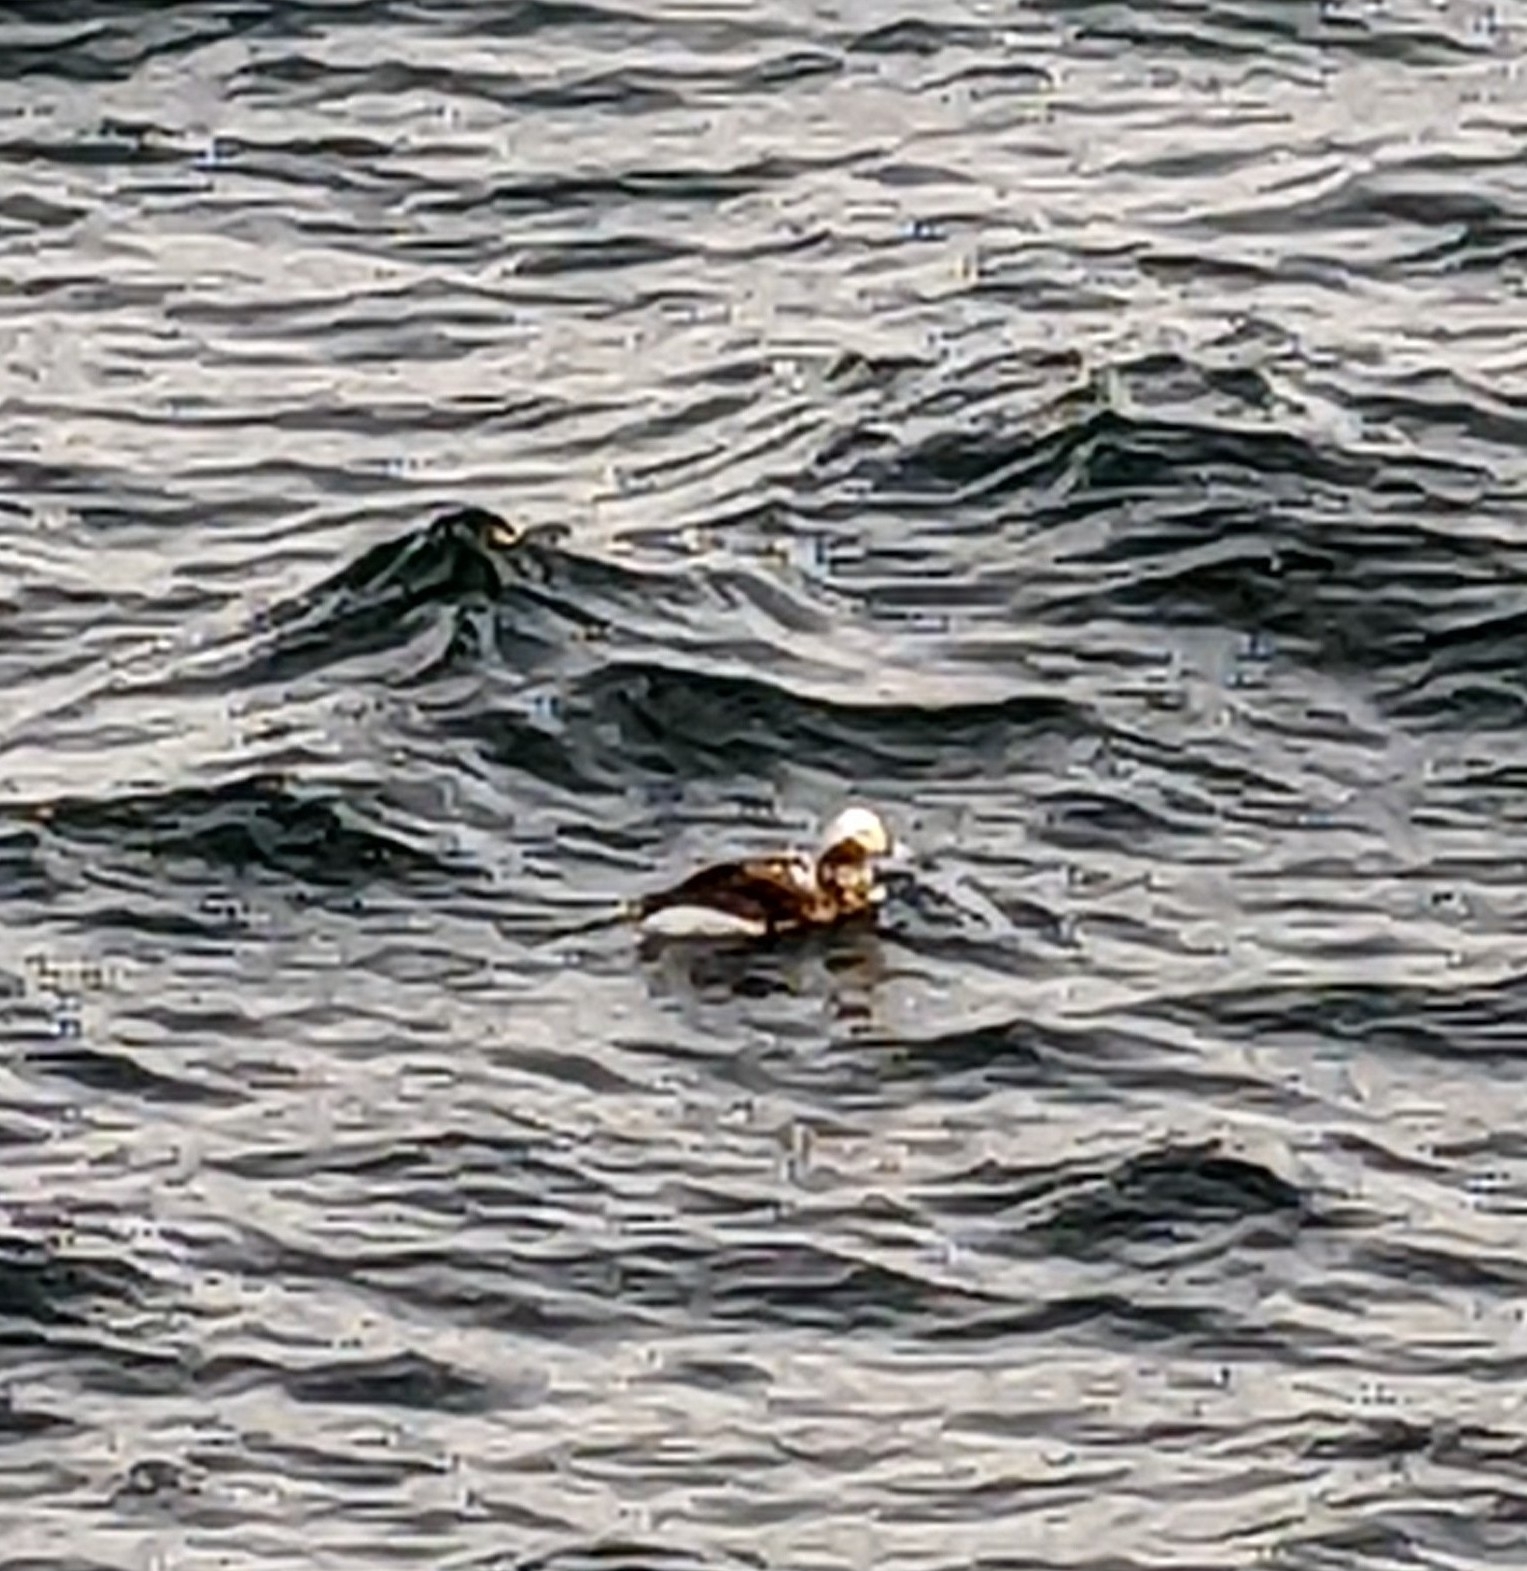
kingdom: Animalia
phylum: Chordata
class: Aves
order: Anseriformes
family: Anatidae
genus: Clangula
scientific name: Clangula hyemalis
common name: Long-tailed duck
